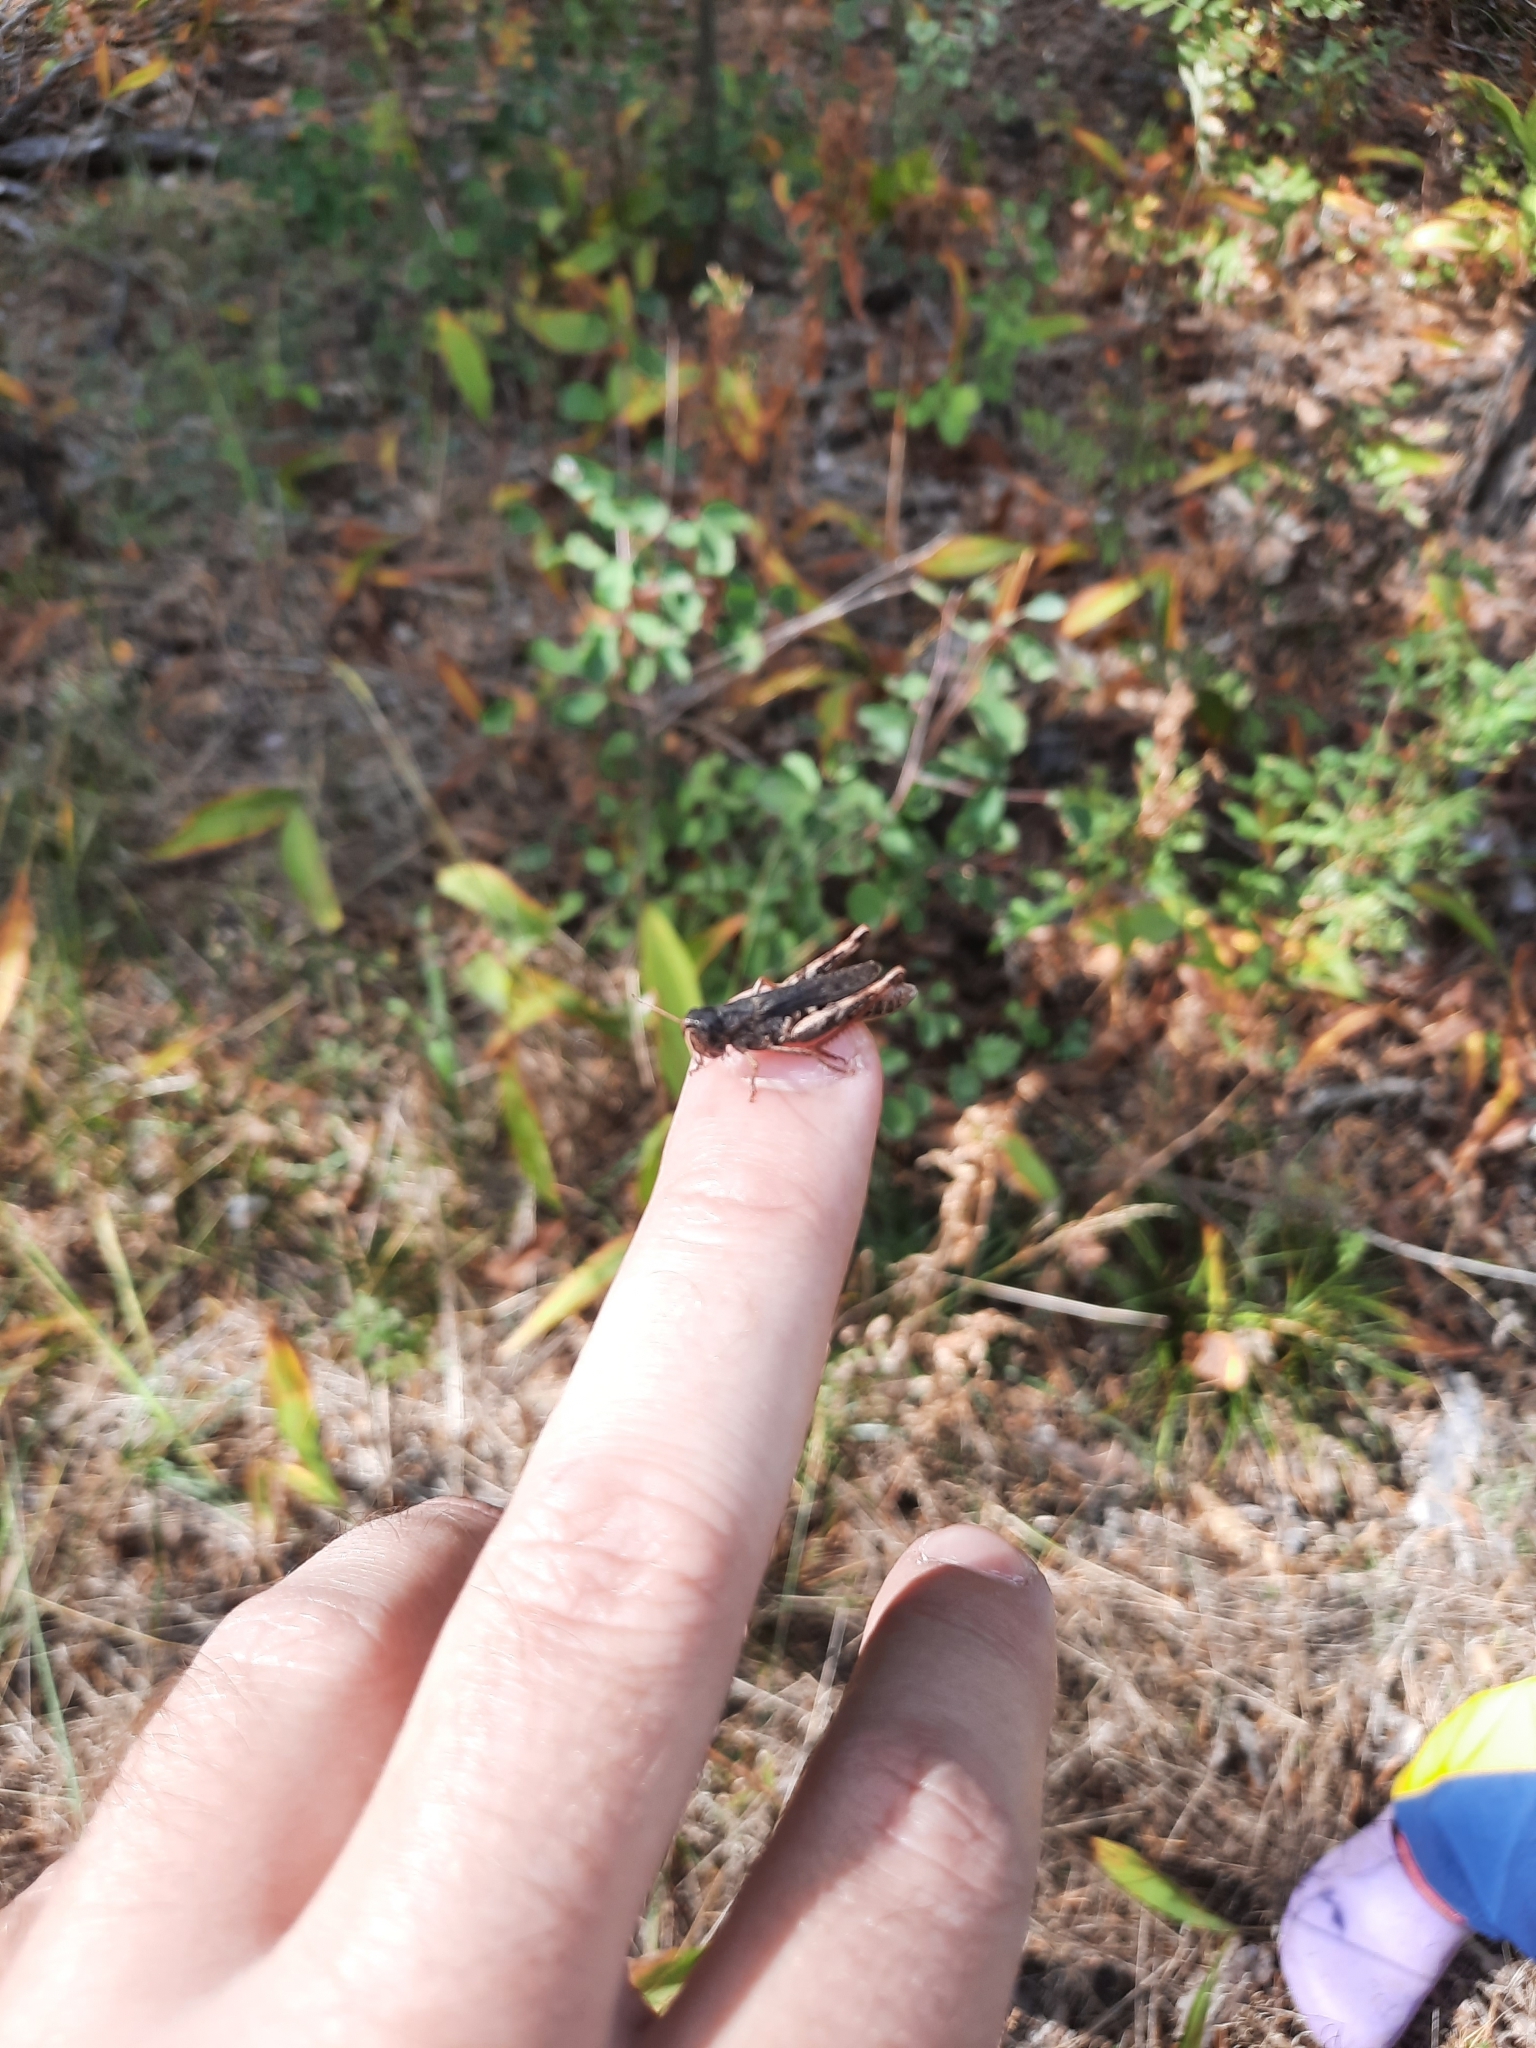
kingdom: Animalia
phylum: Arthropoda
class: Insecta
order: Orthoptera
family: Acrididae
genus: Gomphocerippus
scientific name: Gomphocerippus rufus
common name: Rufous grasshopper
